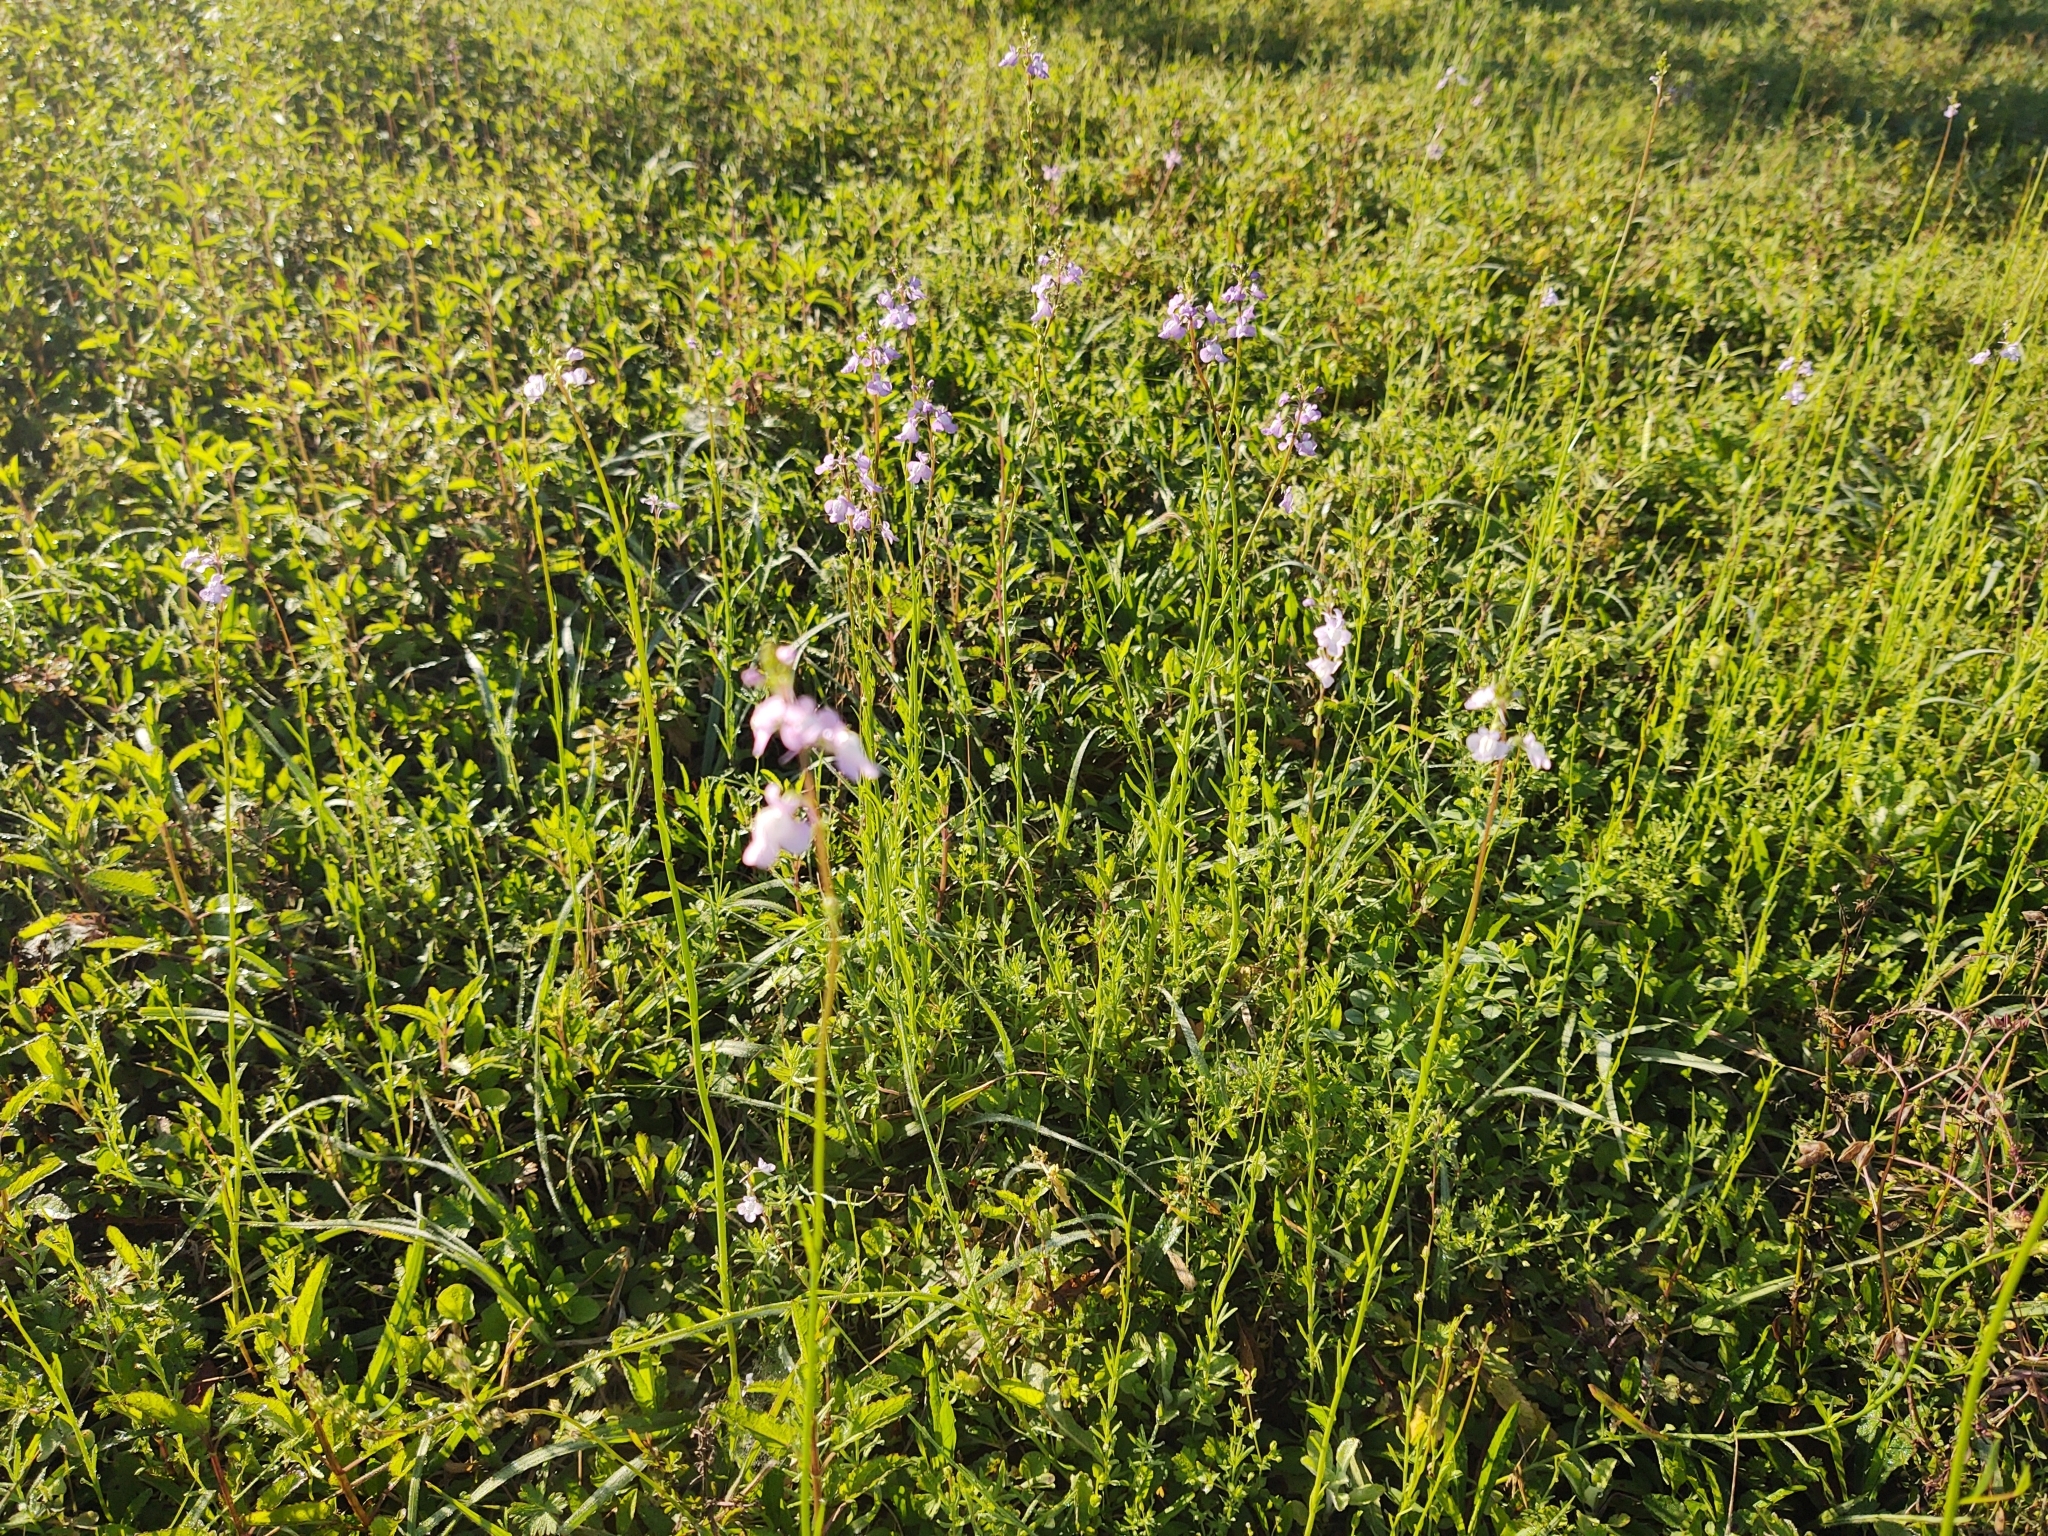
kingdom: Plantae
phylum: Tracheophyta
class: Magnoliopsida
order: Lamiales
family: Plantaginaceae
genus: Nuttallanthus
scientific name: Nuttallanthus canadensis
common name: Blue toadflax
